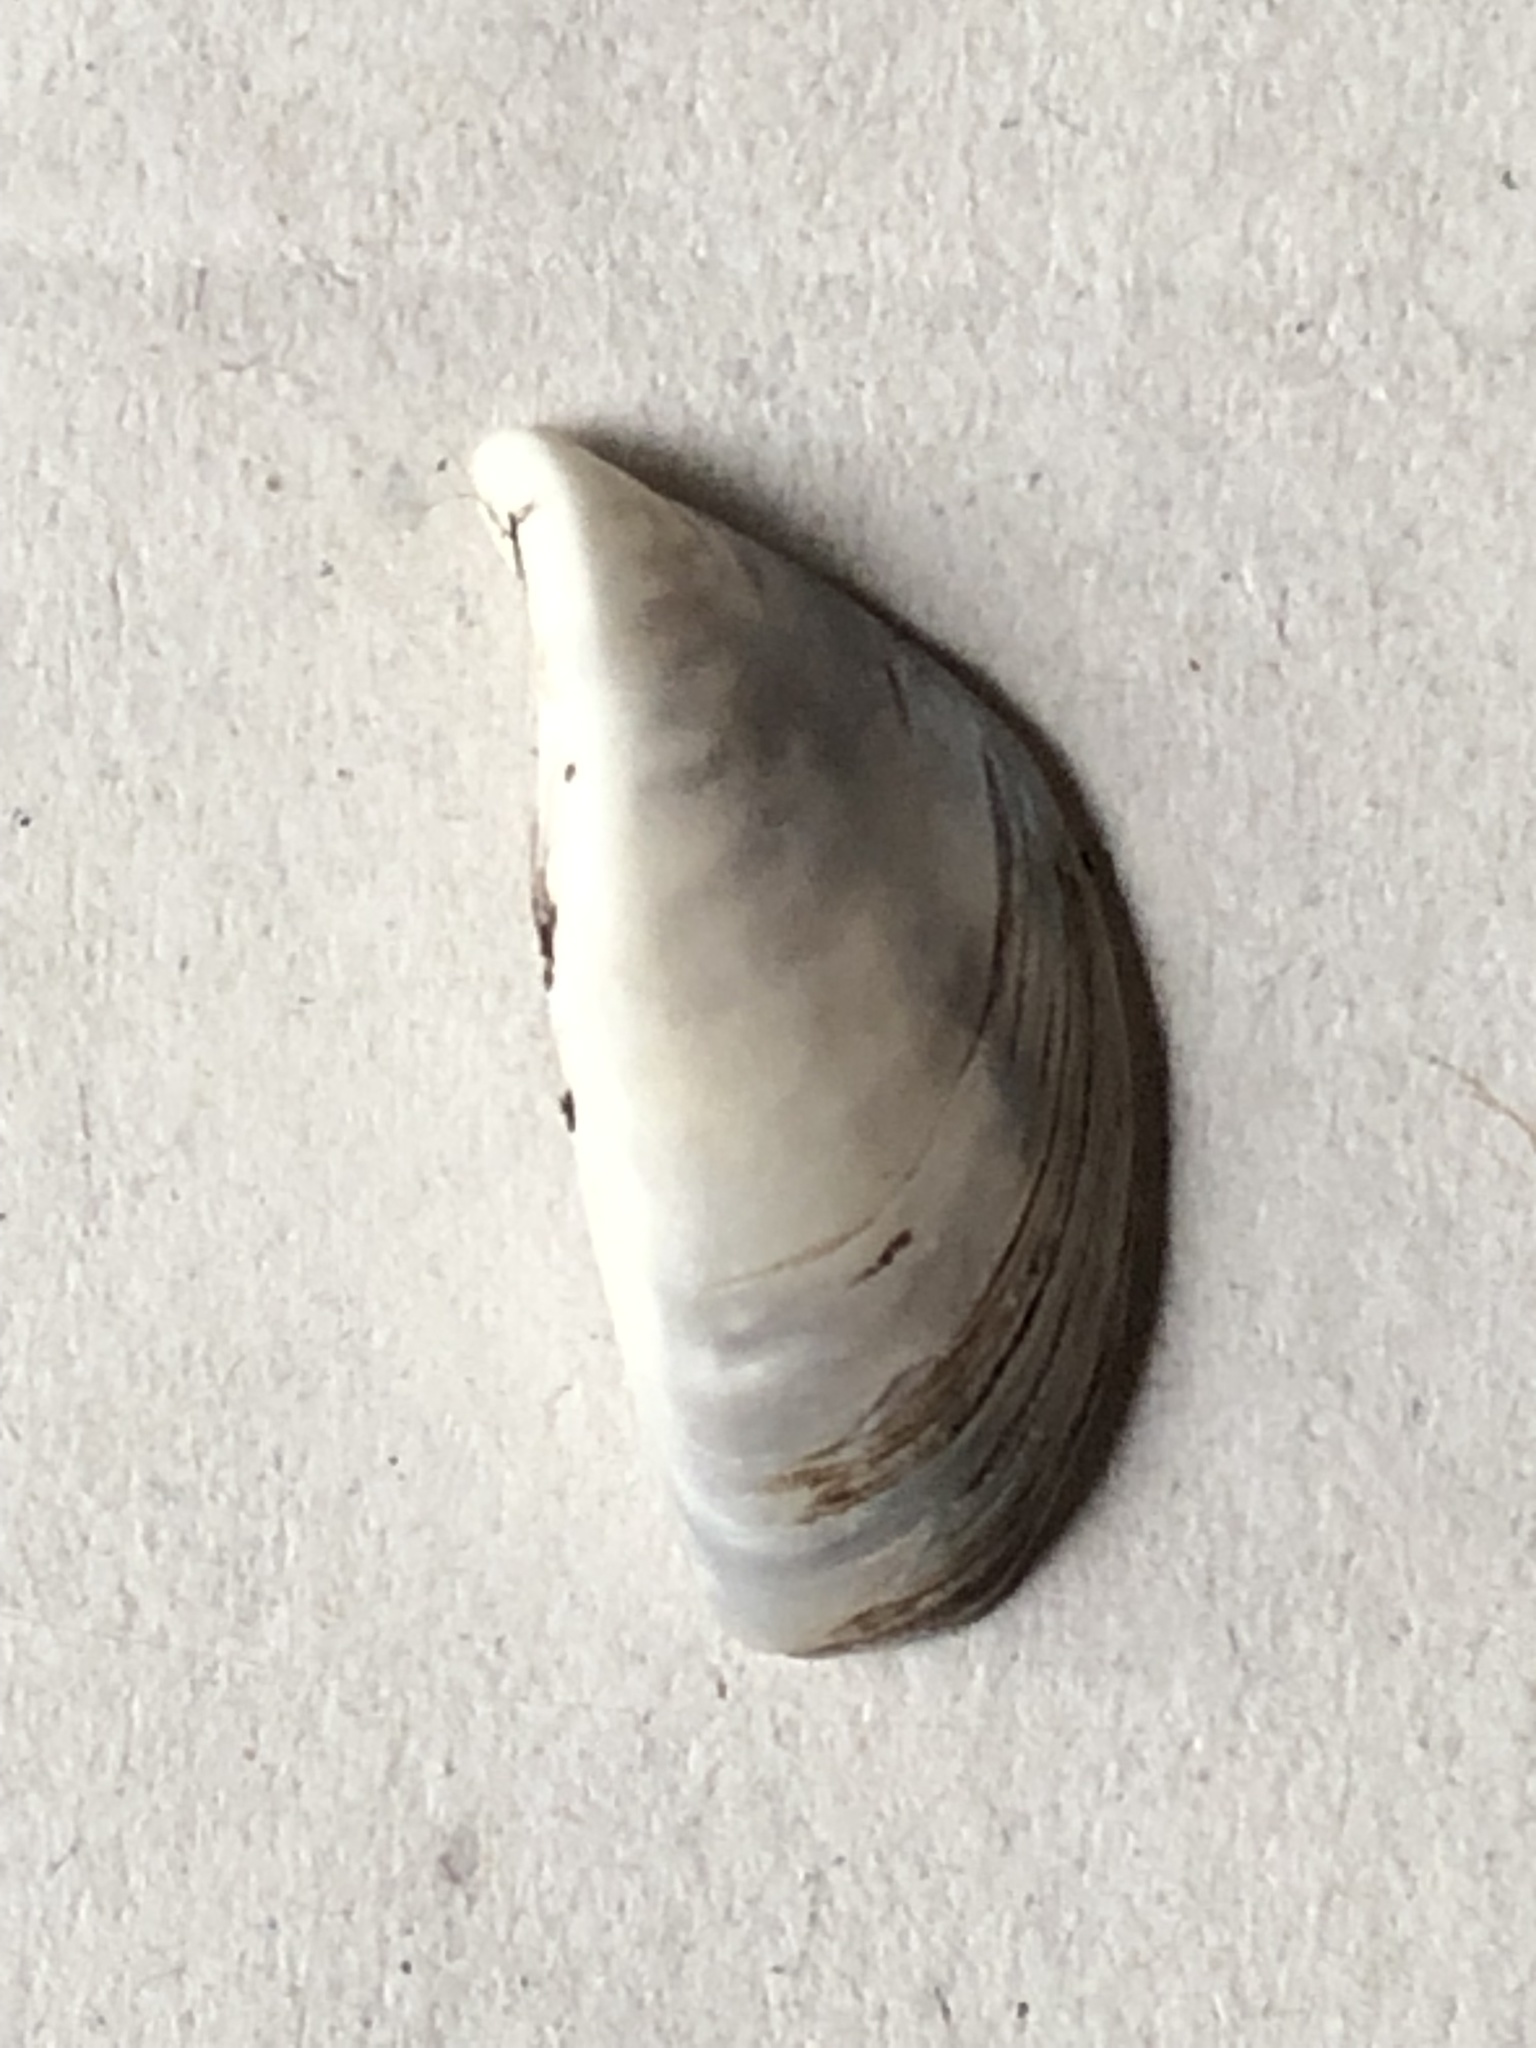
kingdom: Animalia
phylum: Mollusca
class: Bivalvia
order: Myida
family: Dreissenidae
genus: Dreissena
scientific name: Dreissena polymorpha
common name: Zebra mussel
